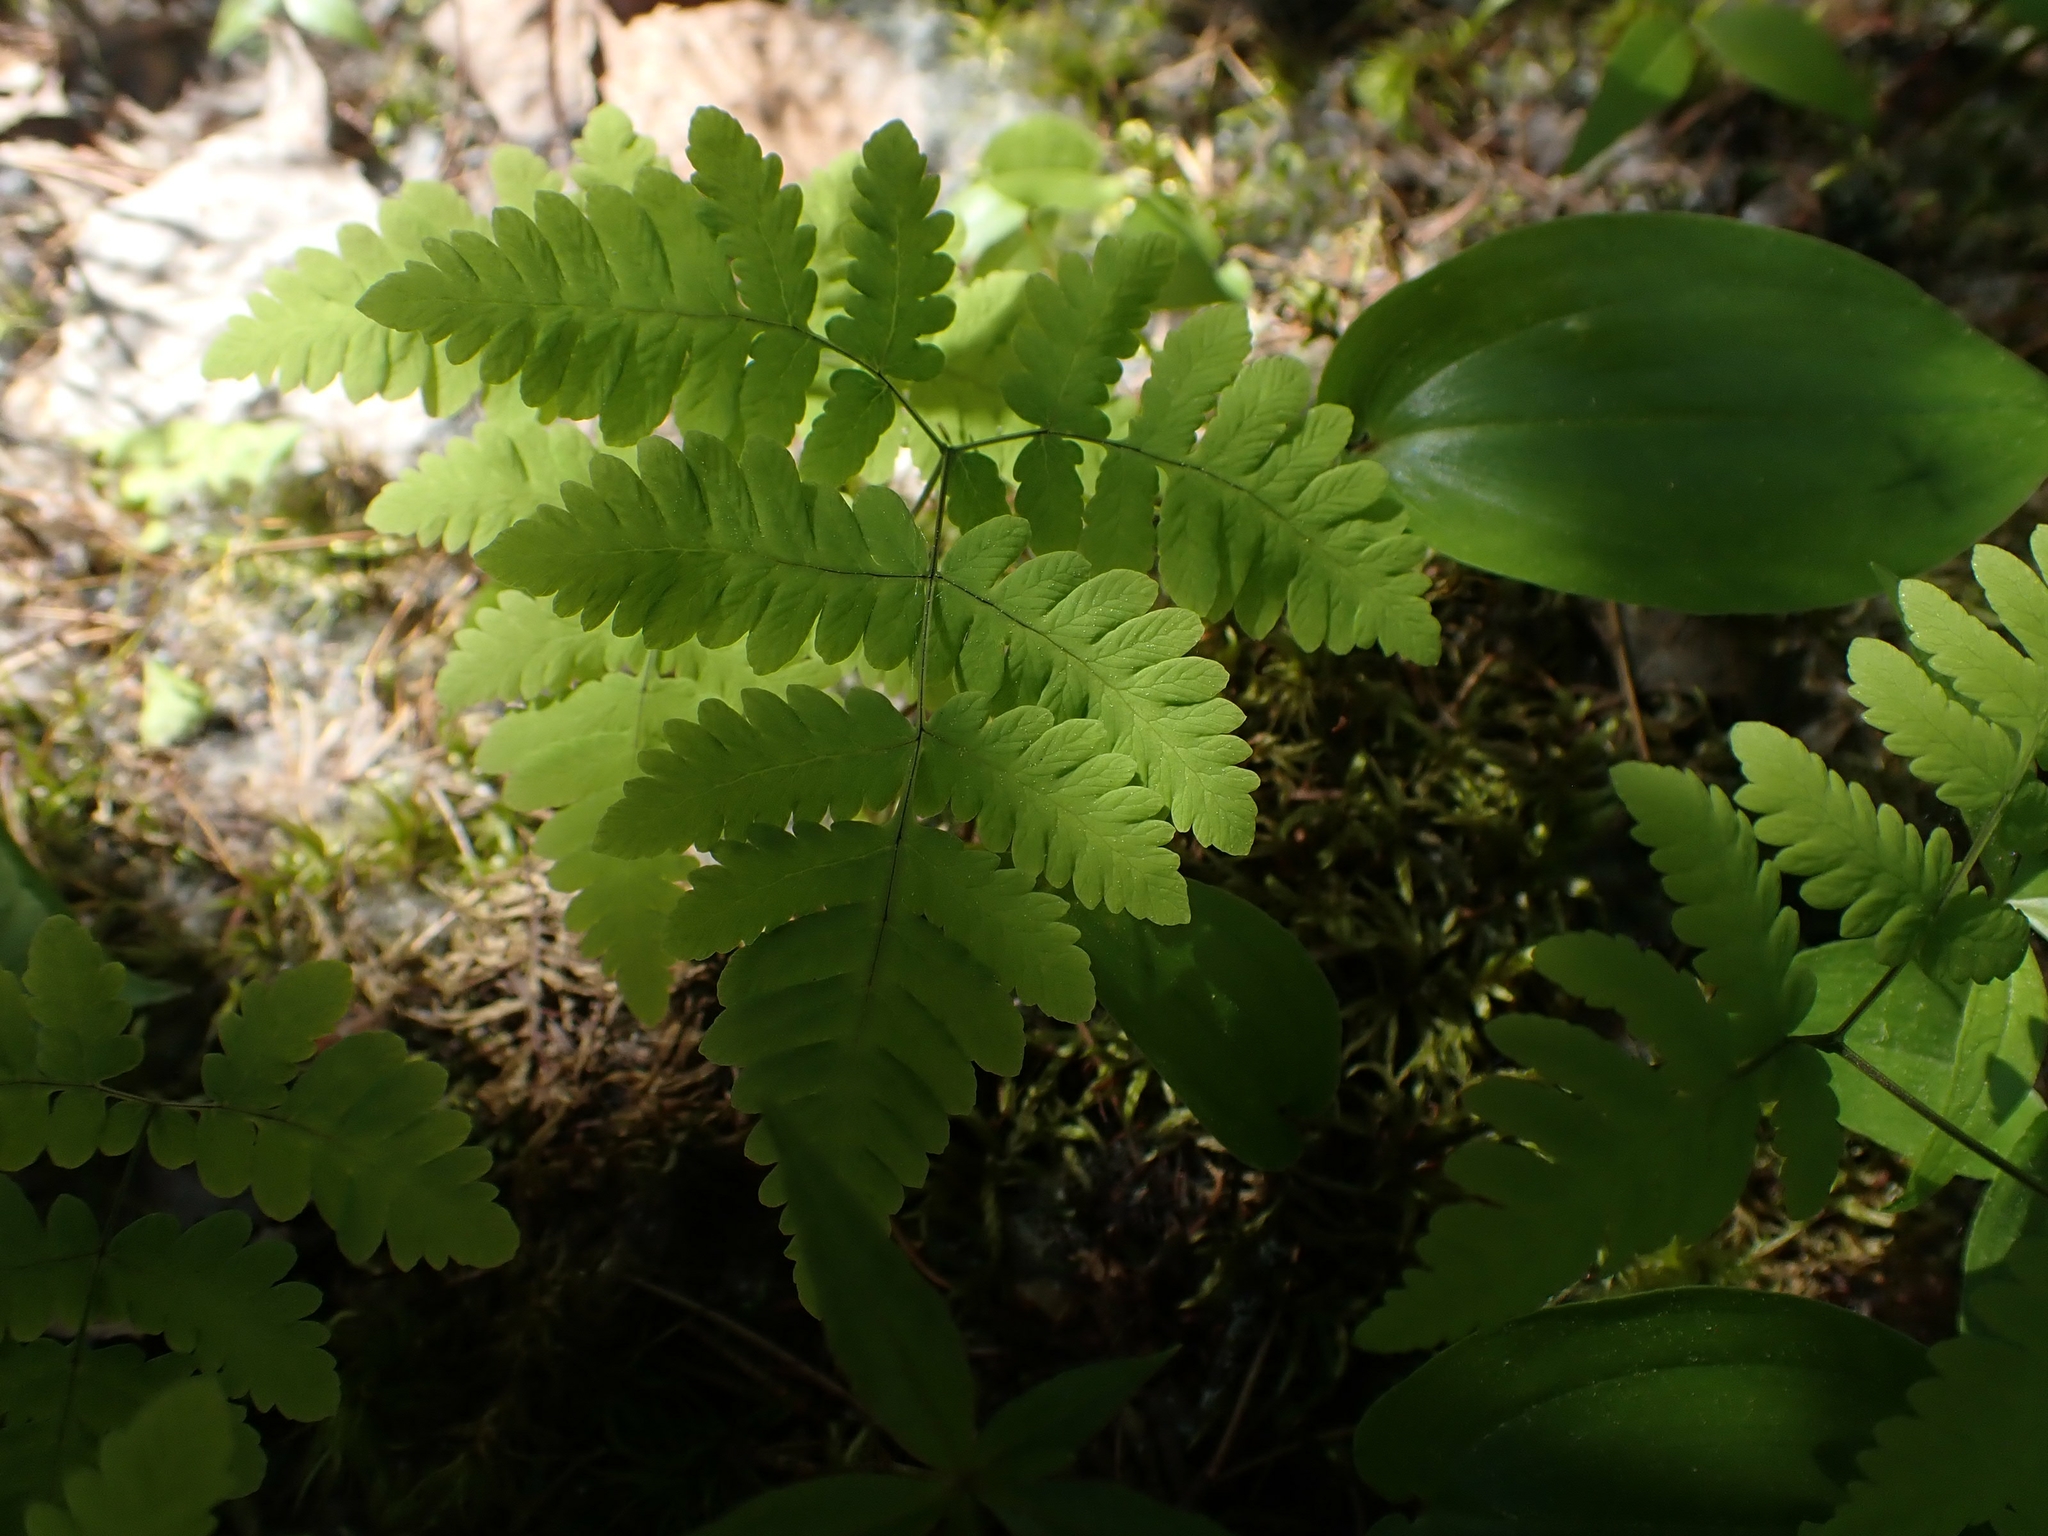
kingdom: Plantae
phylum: Tracheophyta
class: Polypodiopsida
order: Polypodiales
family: Cystopteridaceae
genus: Gymnocarpium
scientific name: Gymnocarpium dryopteris
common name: Oak fern
